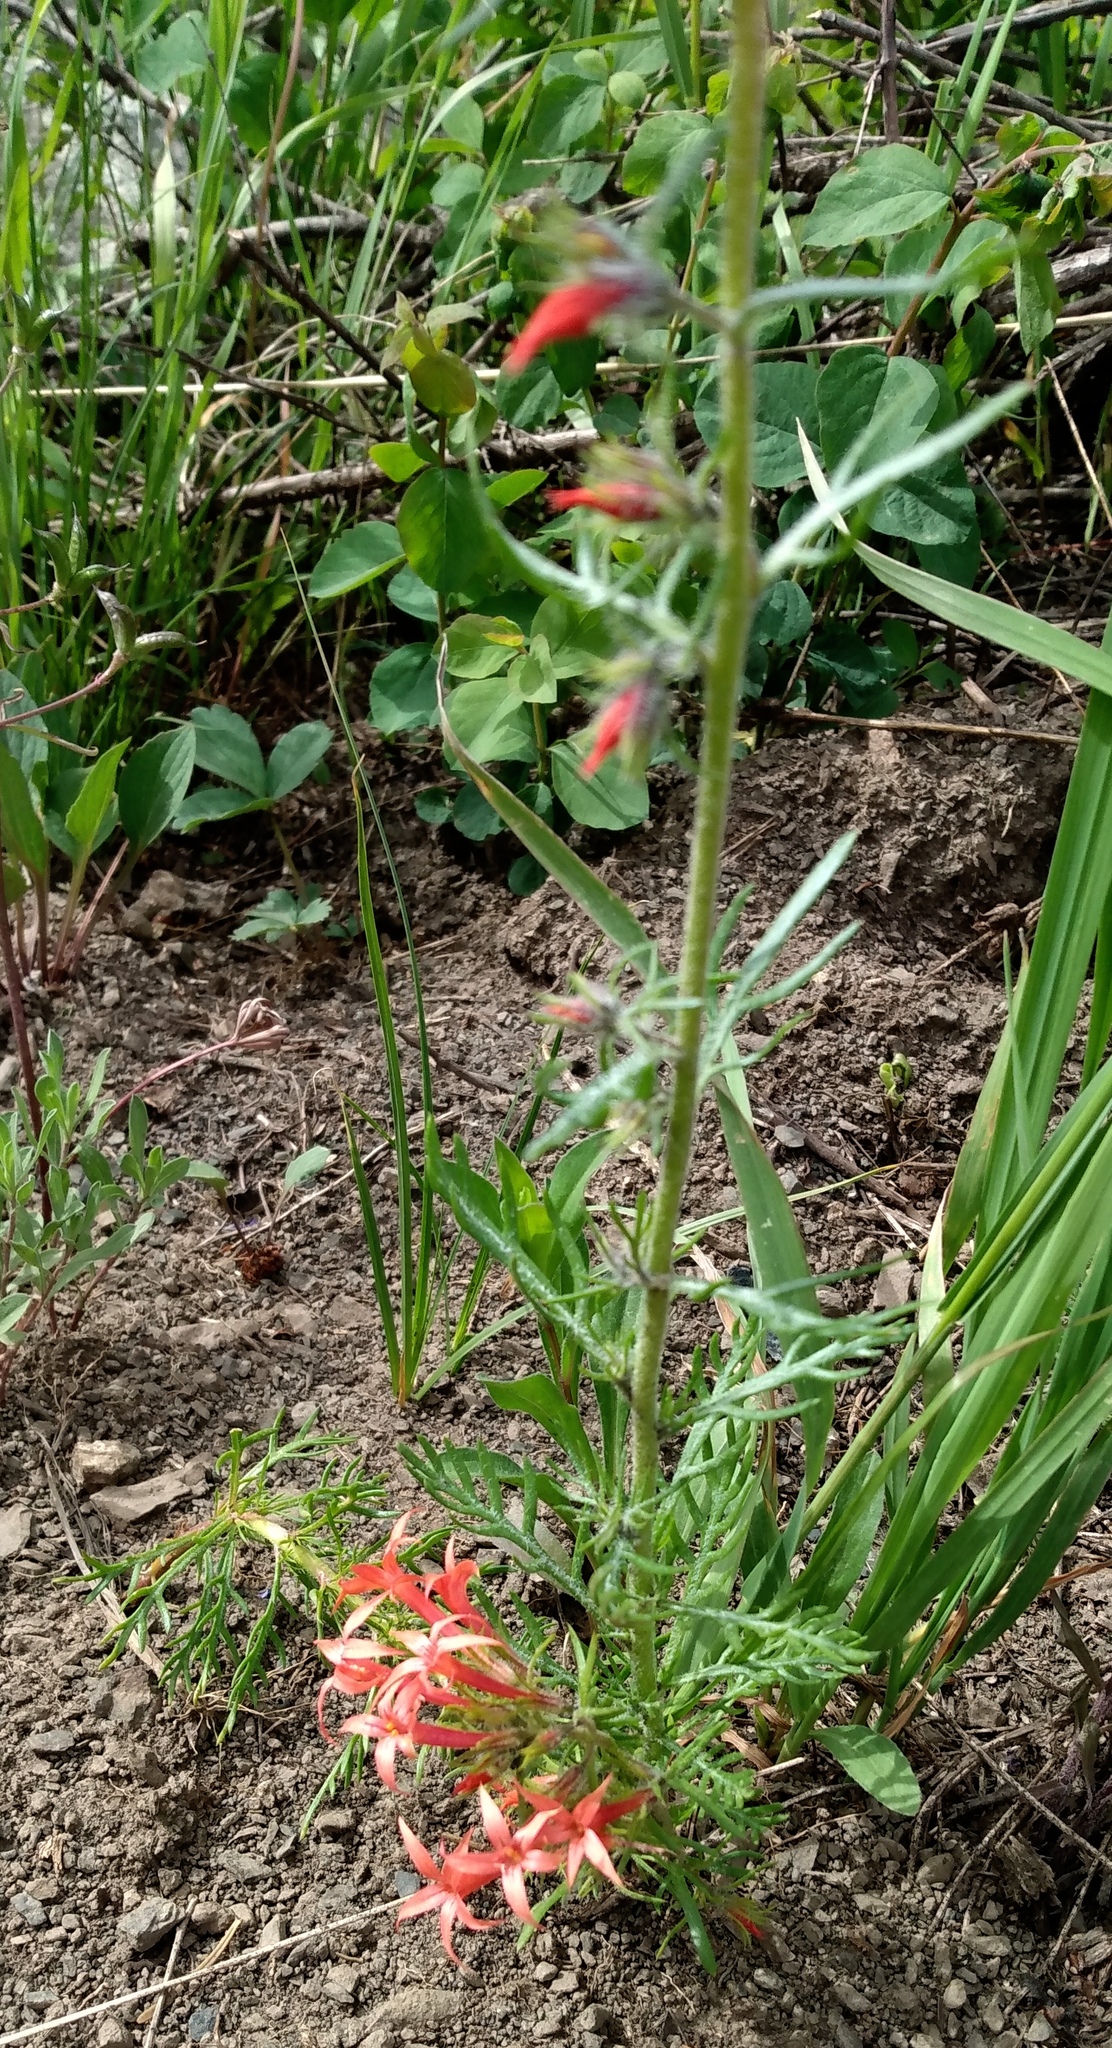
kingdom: Plantae
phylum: Tracheophyta
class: Magnoliopsida
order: Ericales
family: Polemoniaceae
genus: Ipomopsis
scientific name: Ipomopsis aggregata
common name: Scarlet gilia
